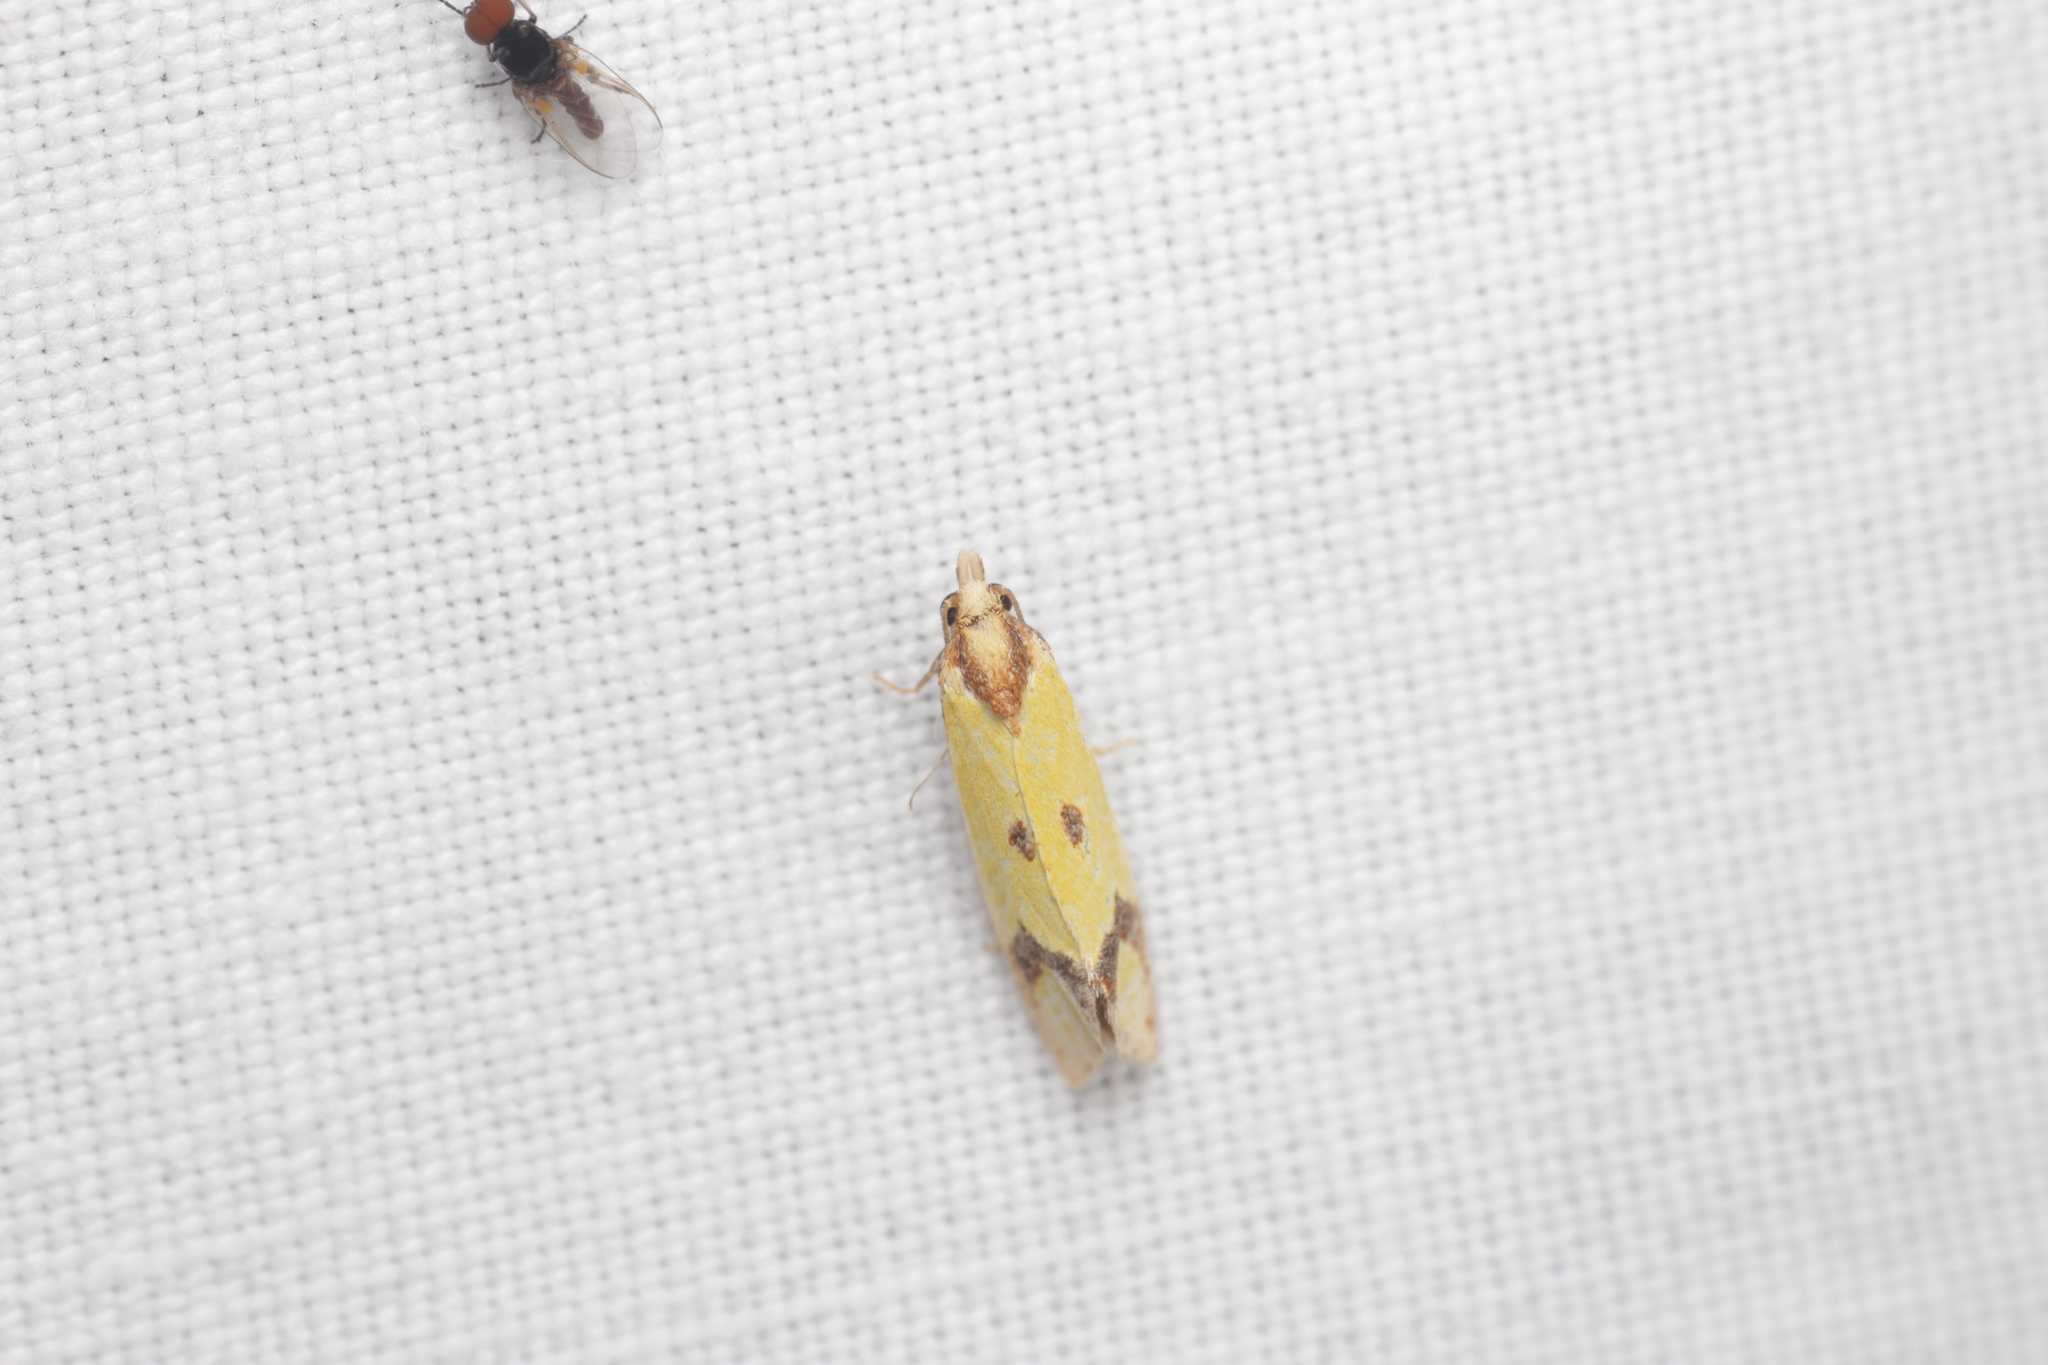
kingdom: Animalia
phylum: Arthropoda
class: Insecta
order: Lepidoptera
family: Tortricidae
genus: Agapeta
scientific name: Agapeta zoegana
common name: Sulfur knapweed root moth
